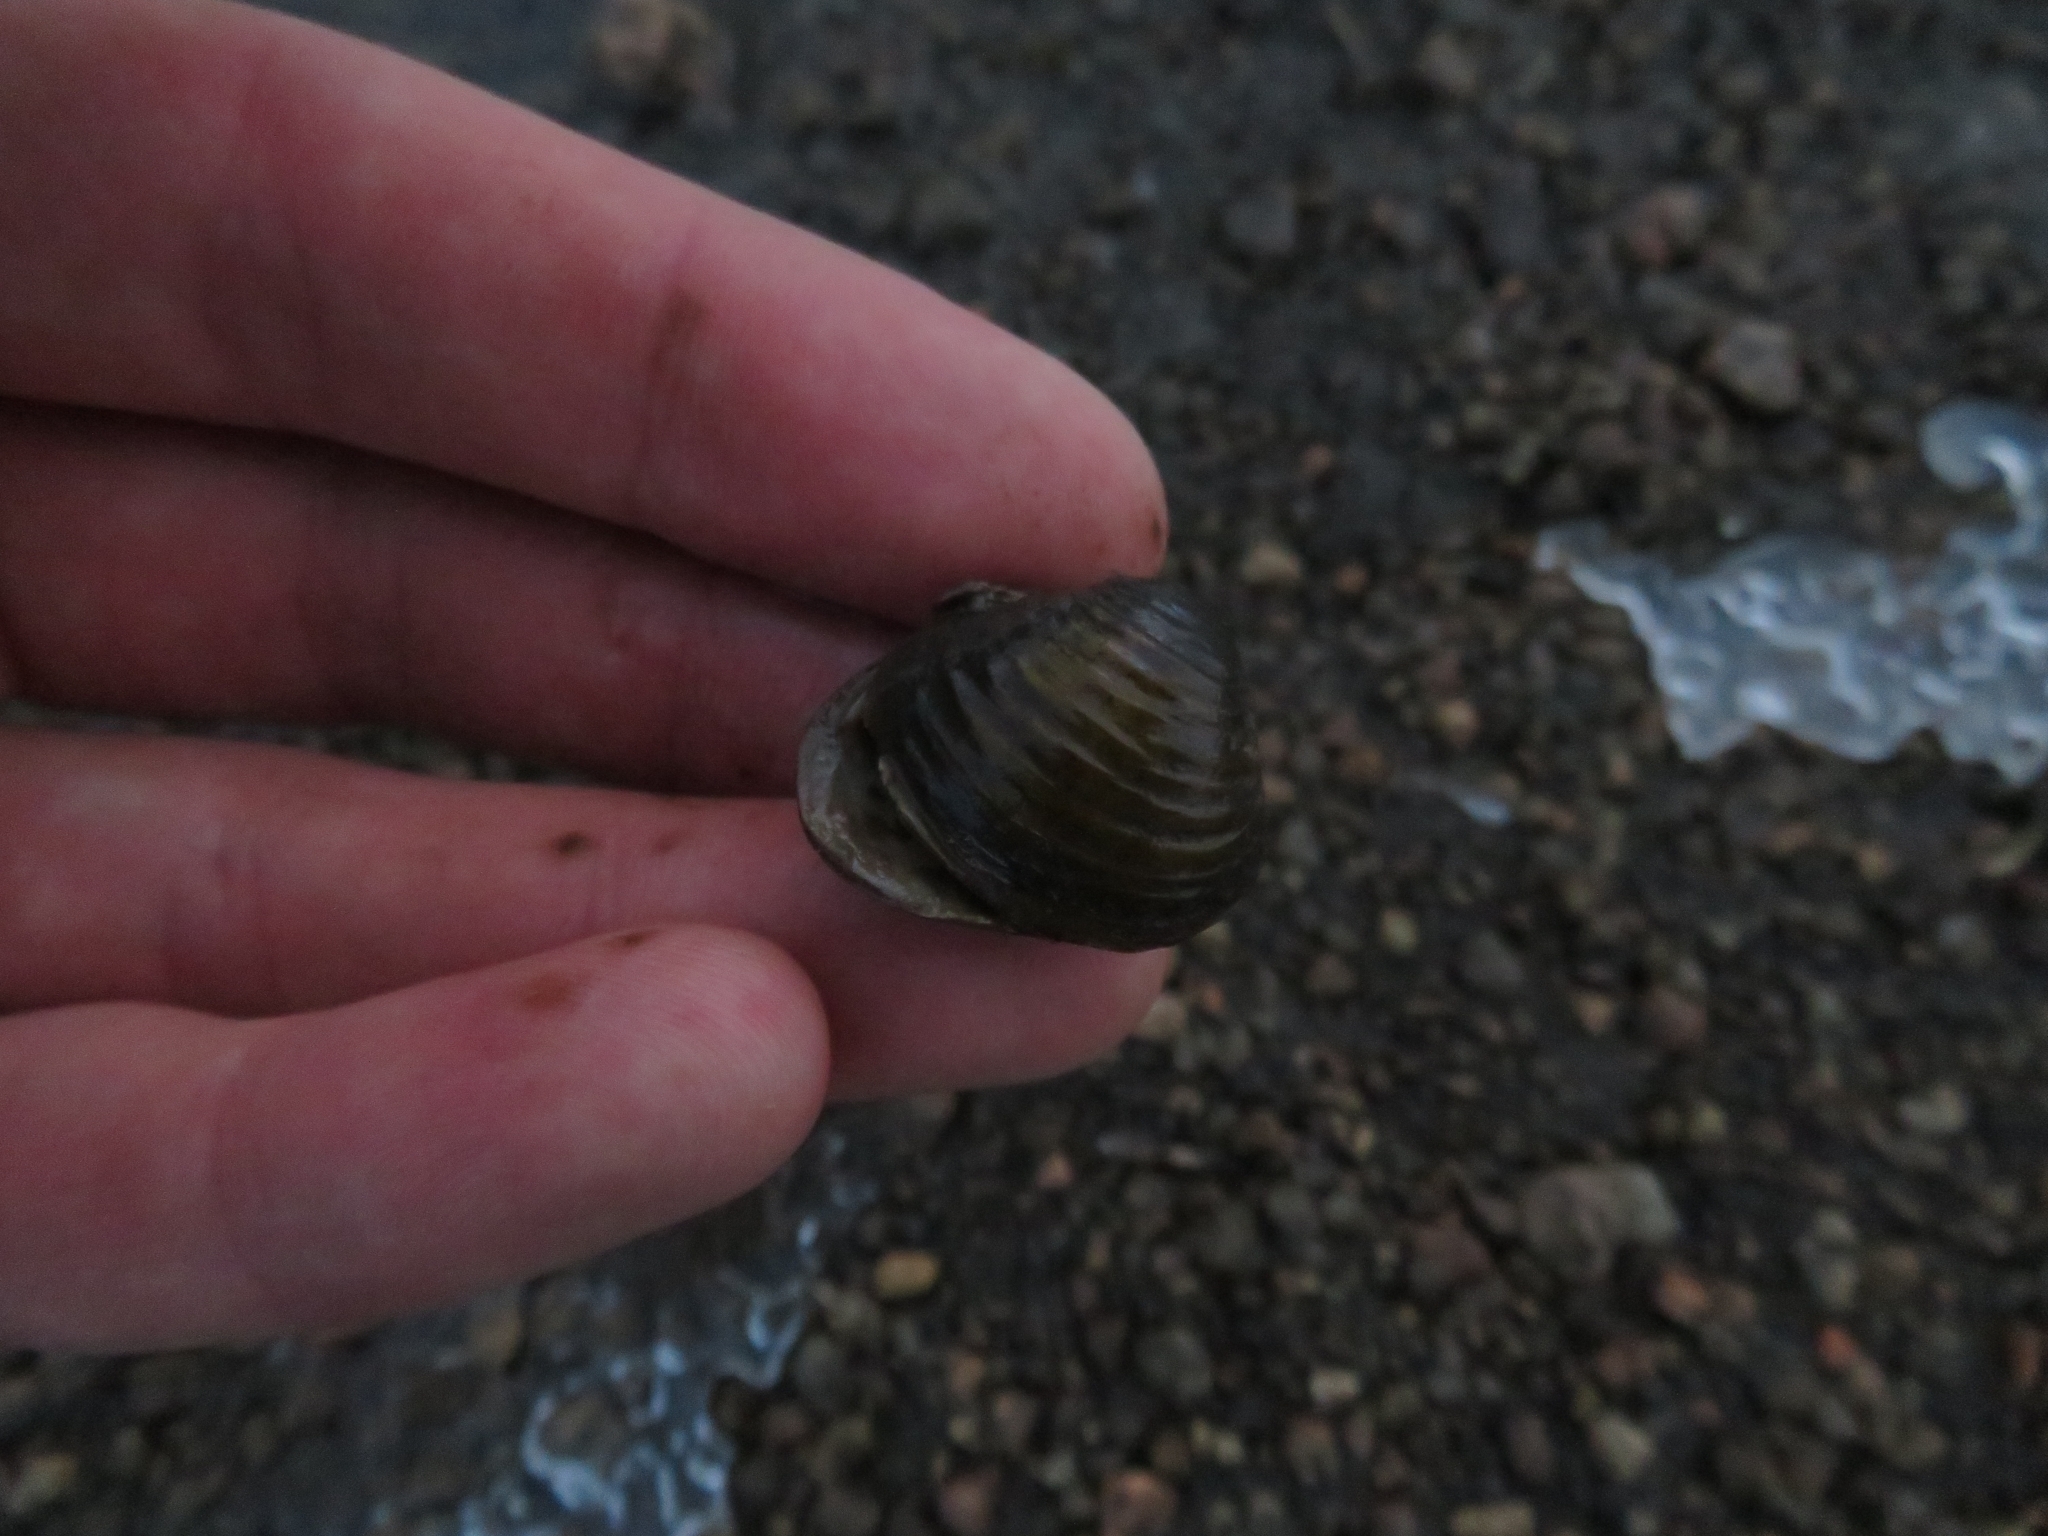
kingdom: Animalia
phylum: Mollusca
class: Bivalvia
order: Venerida
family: Cyrenidae
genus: Corbicula
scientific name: Corbicula fluminea
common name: Asian clam
